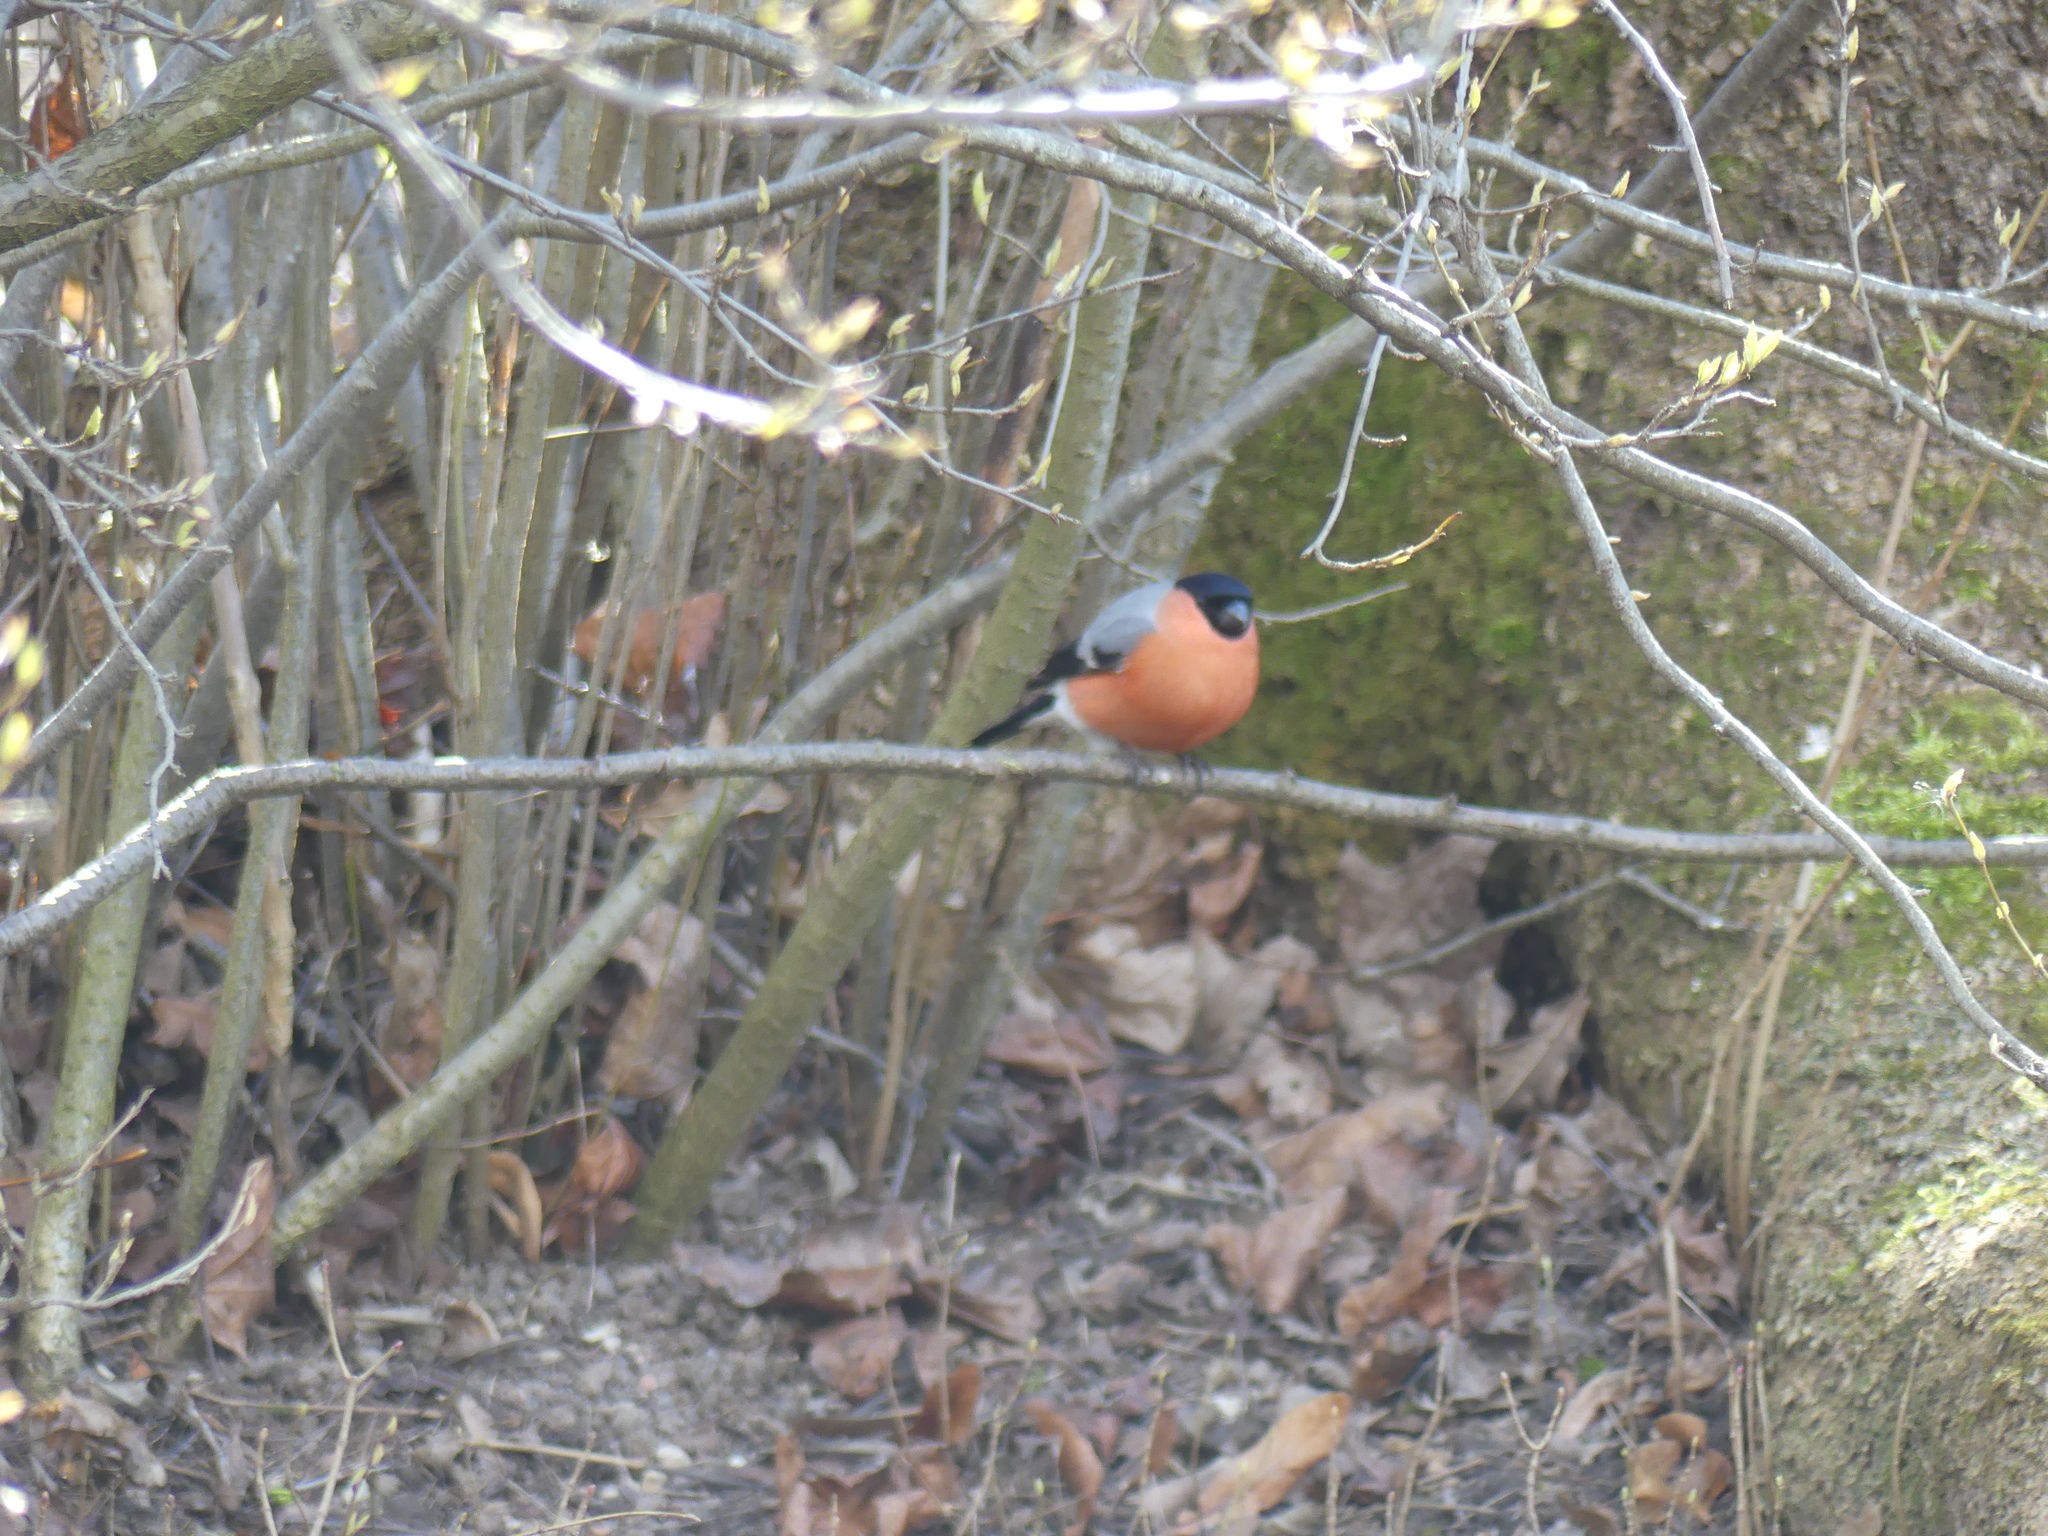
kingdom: Animalia
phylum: Chordata
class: Aves
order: Passeriformes
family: Fringillidae
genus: Pyrrhula
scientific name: Pyrrhula pyrrhula
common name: Eurasian bullfinch
